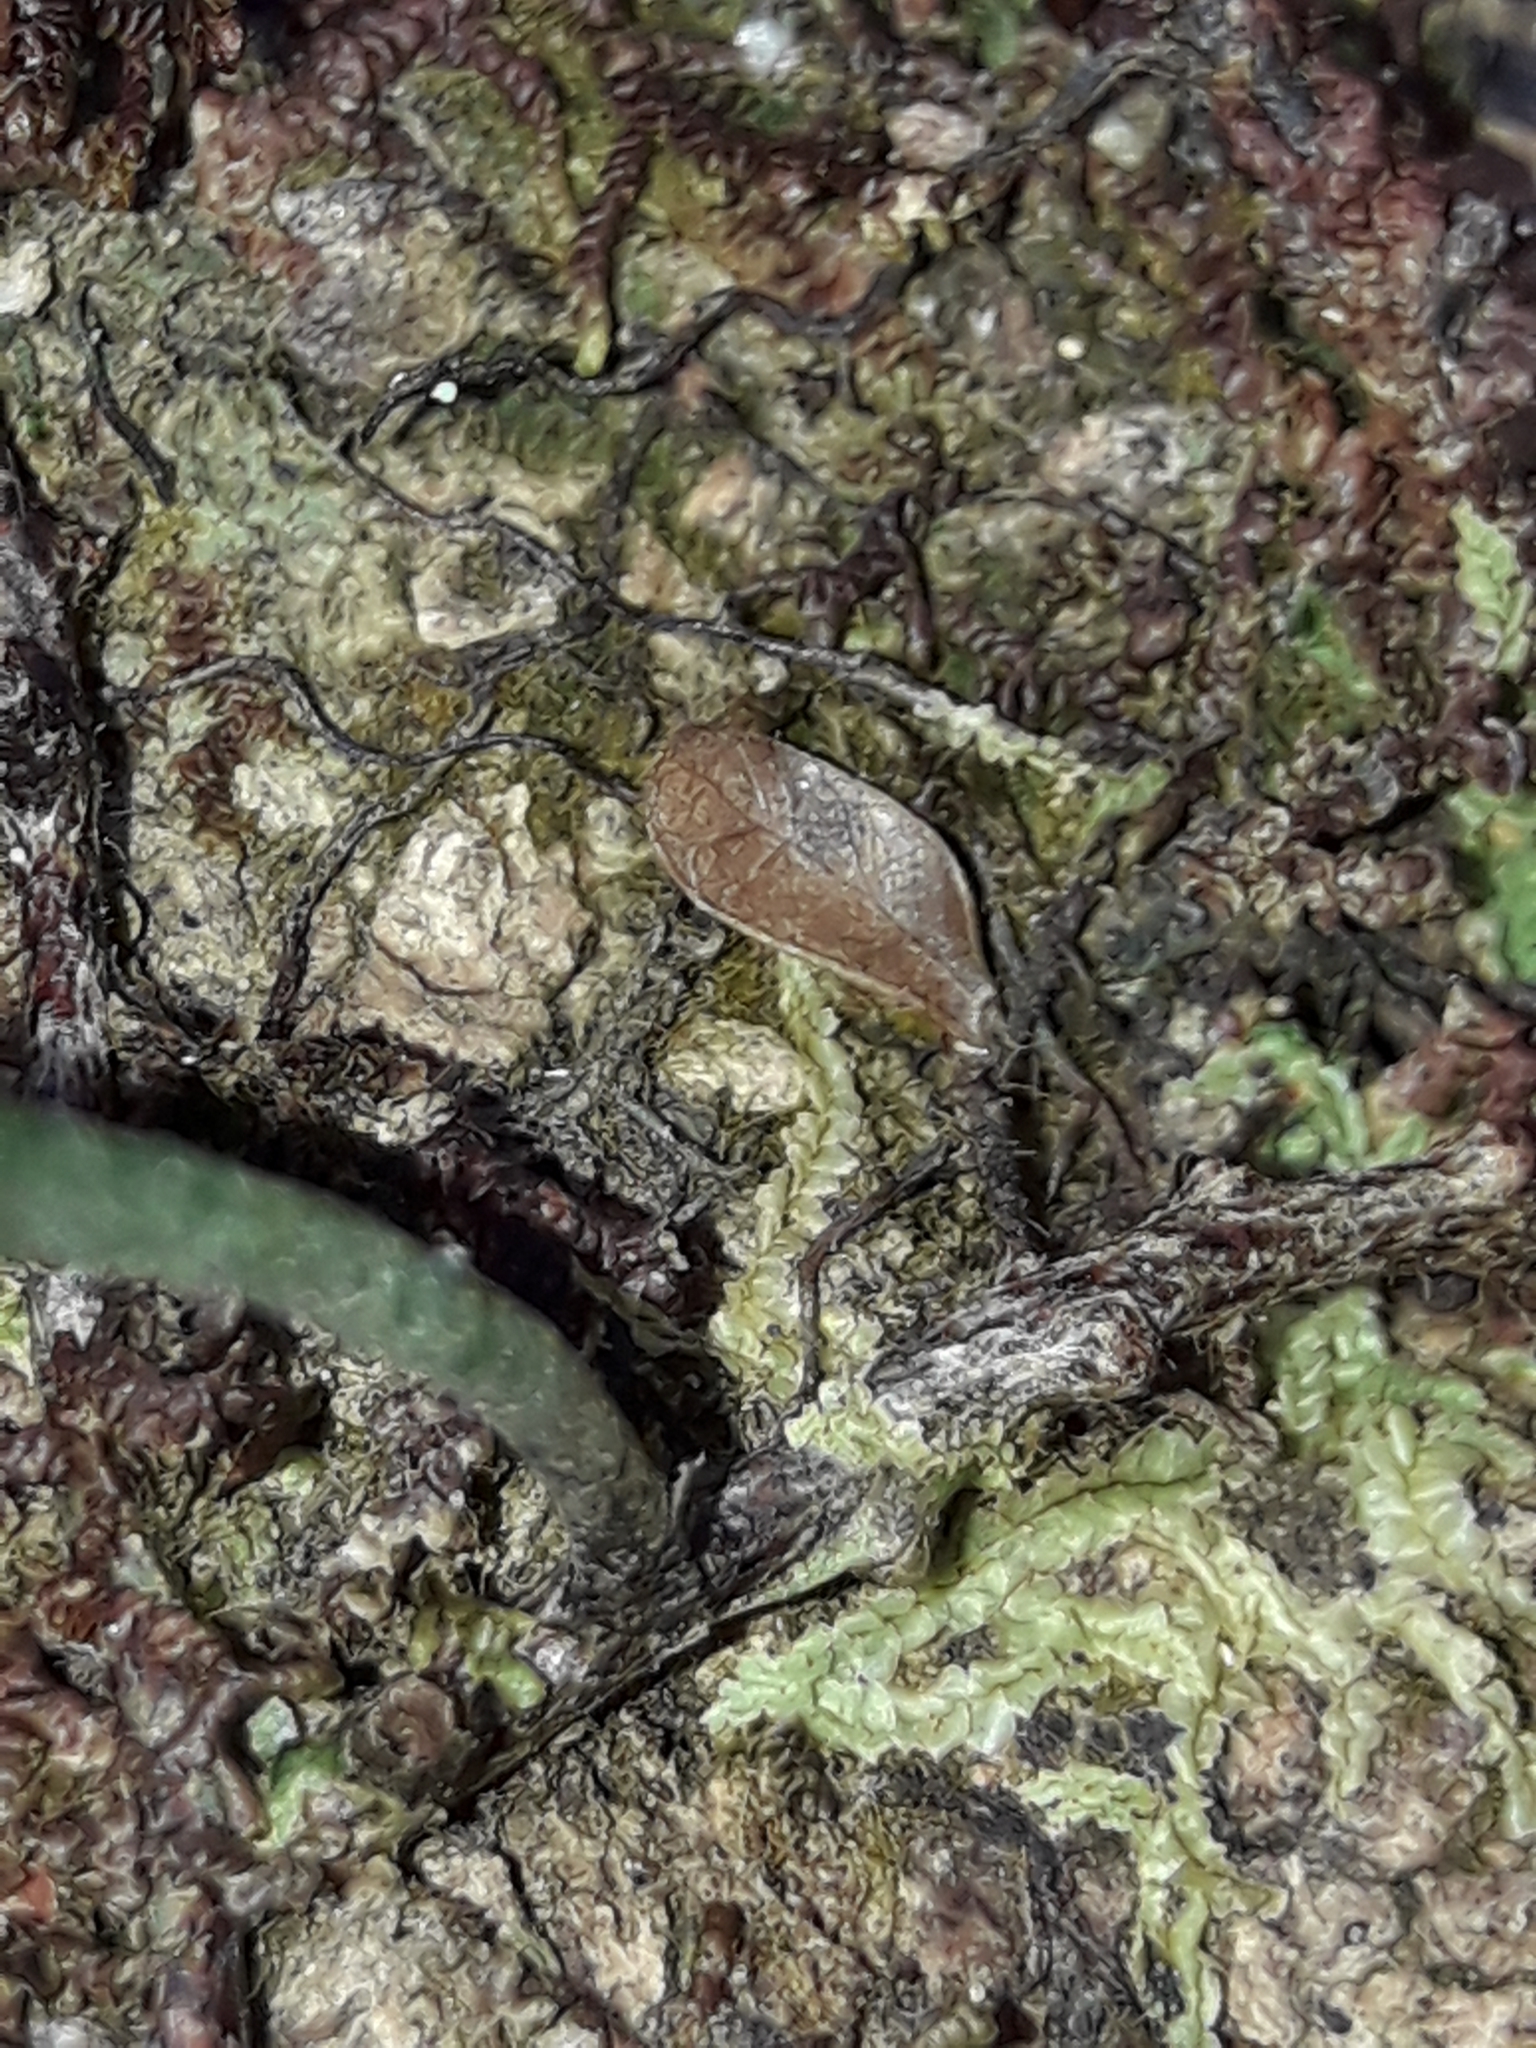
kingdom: Plantae
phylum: Tracheophyta
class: Polypodiopsida
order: Polypodiales
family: Polypodiaceae
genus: Pyrrosia
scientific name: Pyrrosia confluens
